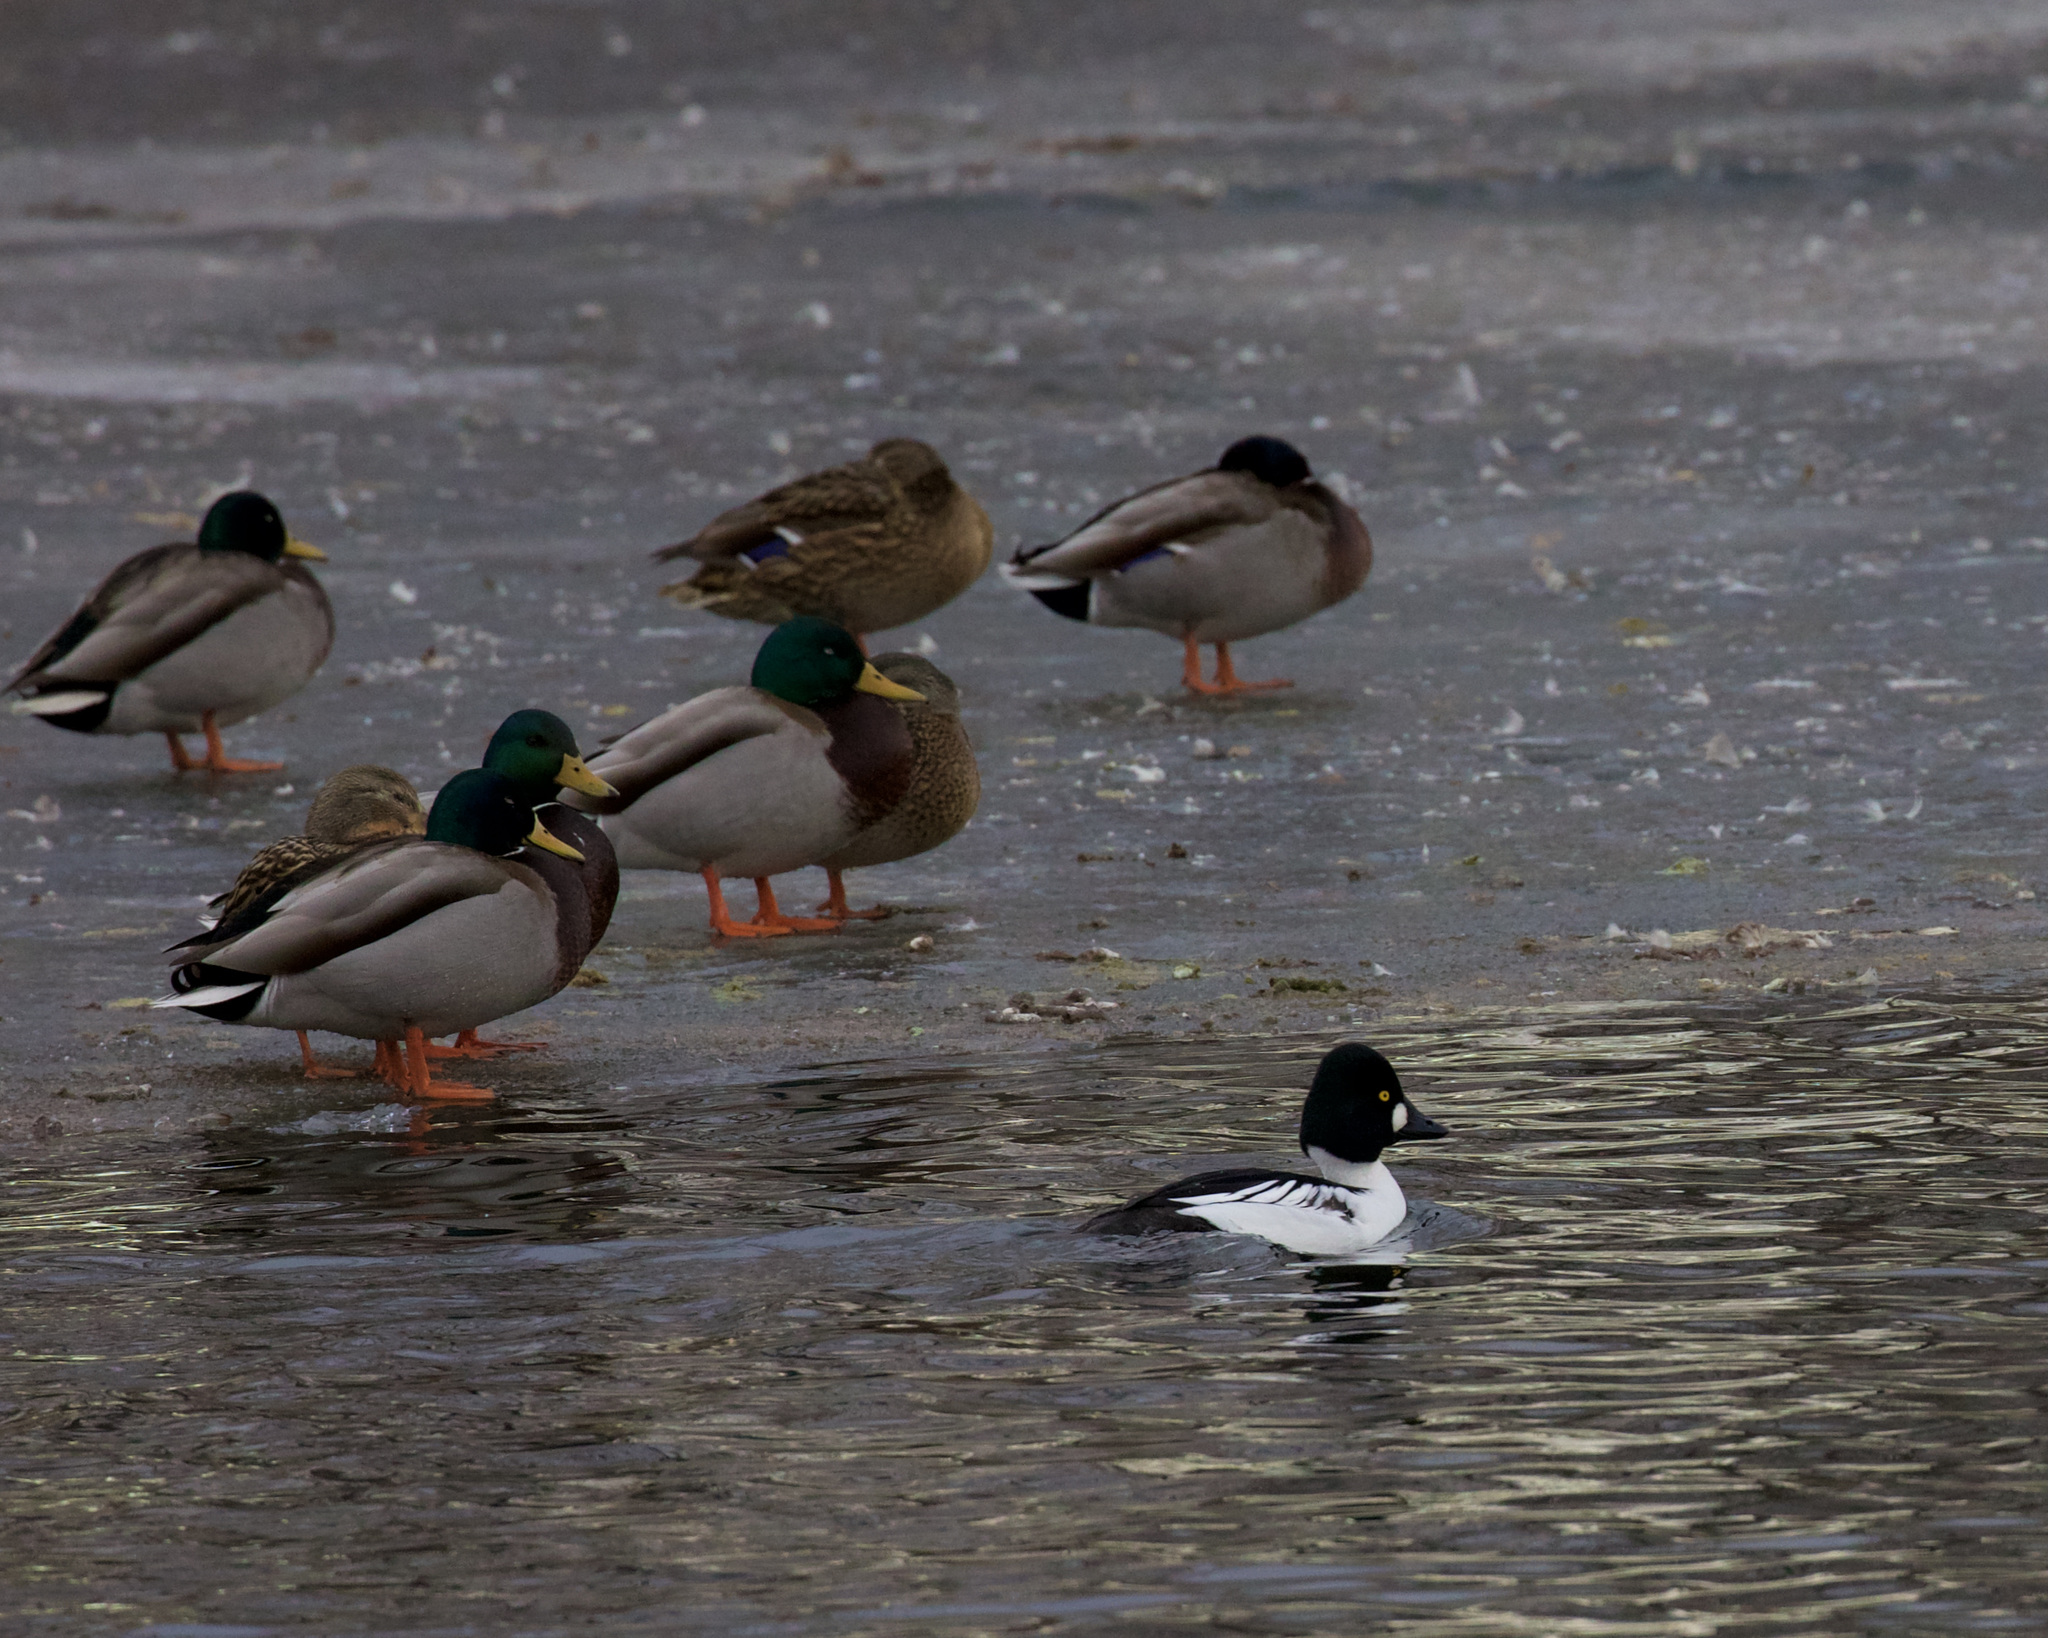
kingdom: Animalia
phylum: Chordata
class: Aves
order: Anseriformes
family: Anatidae
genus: Bucephala
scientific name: Bucephala clangula
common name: Common goldeneye
